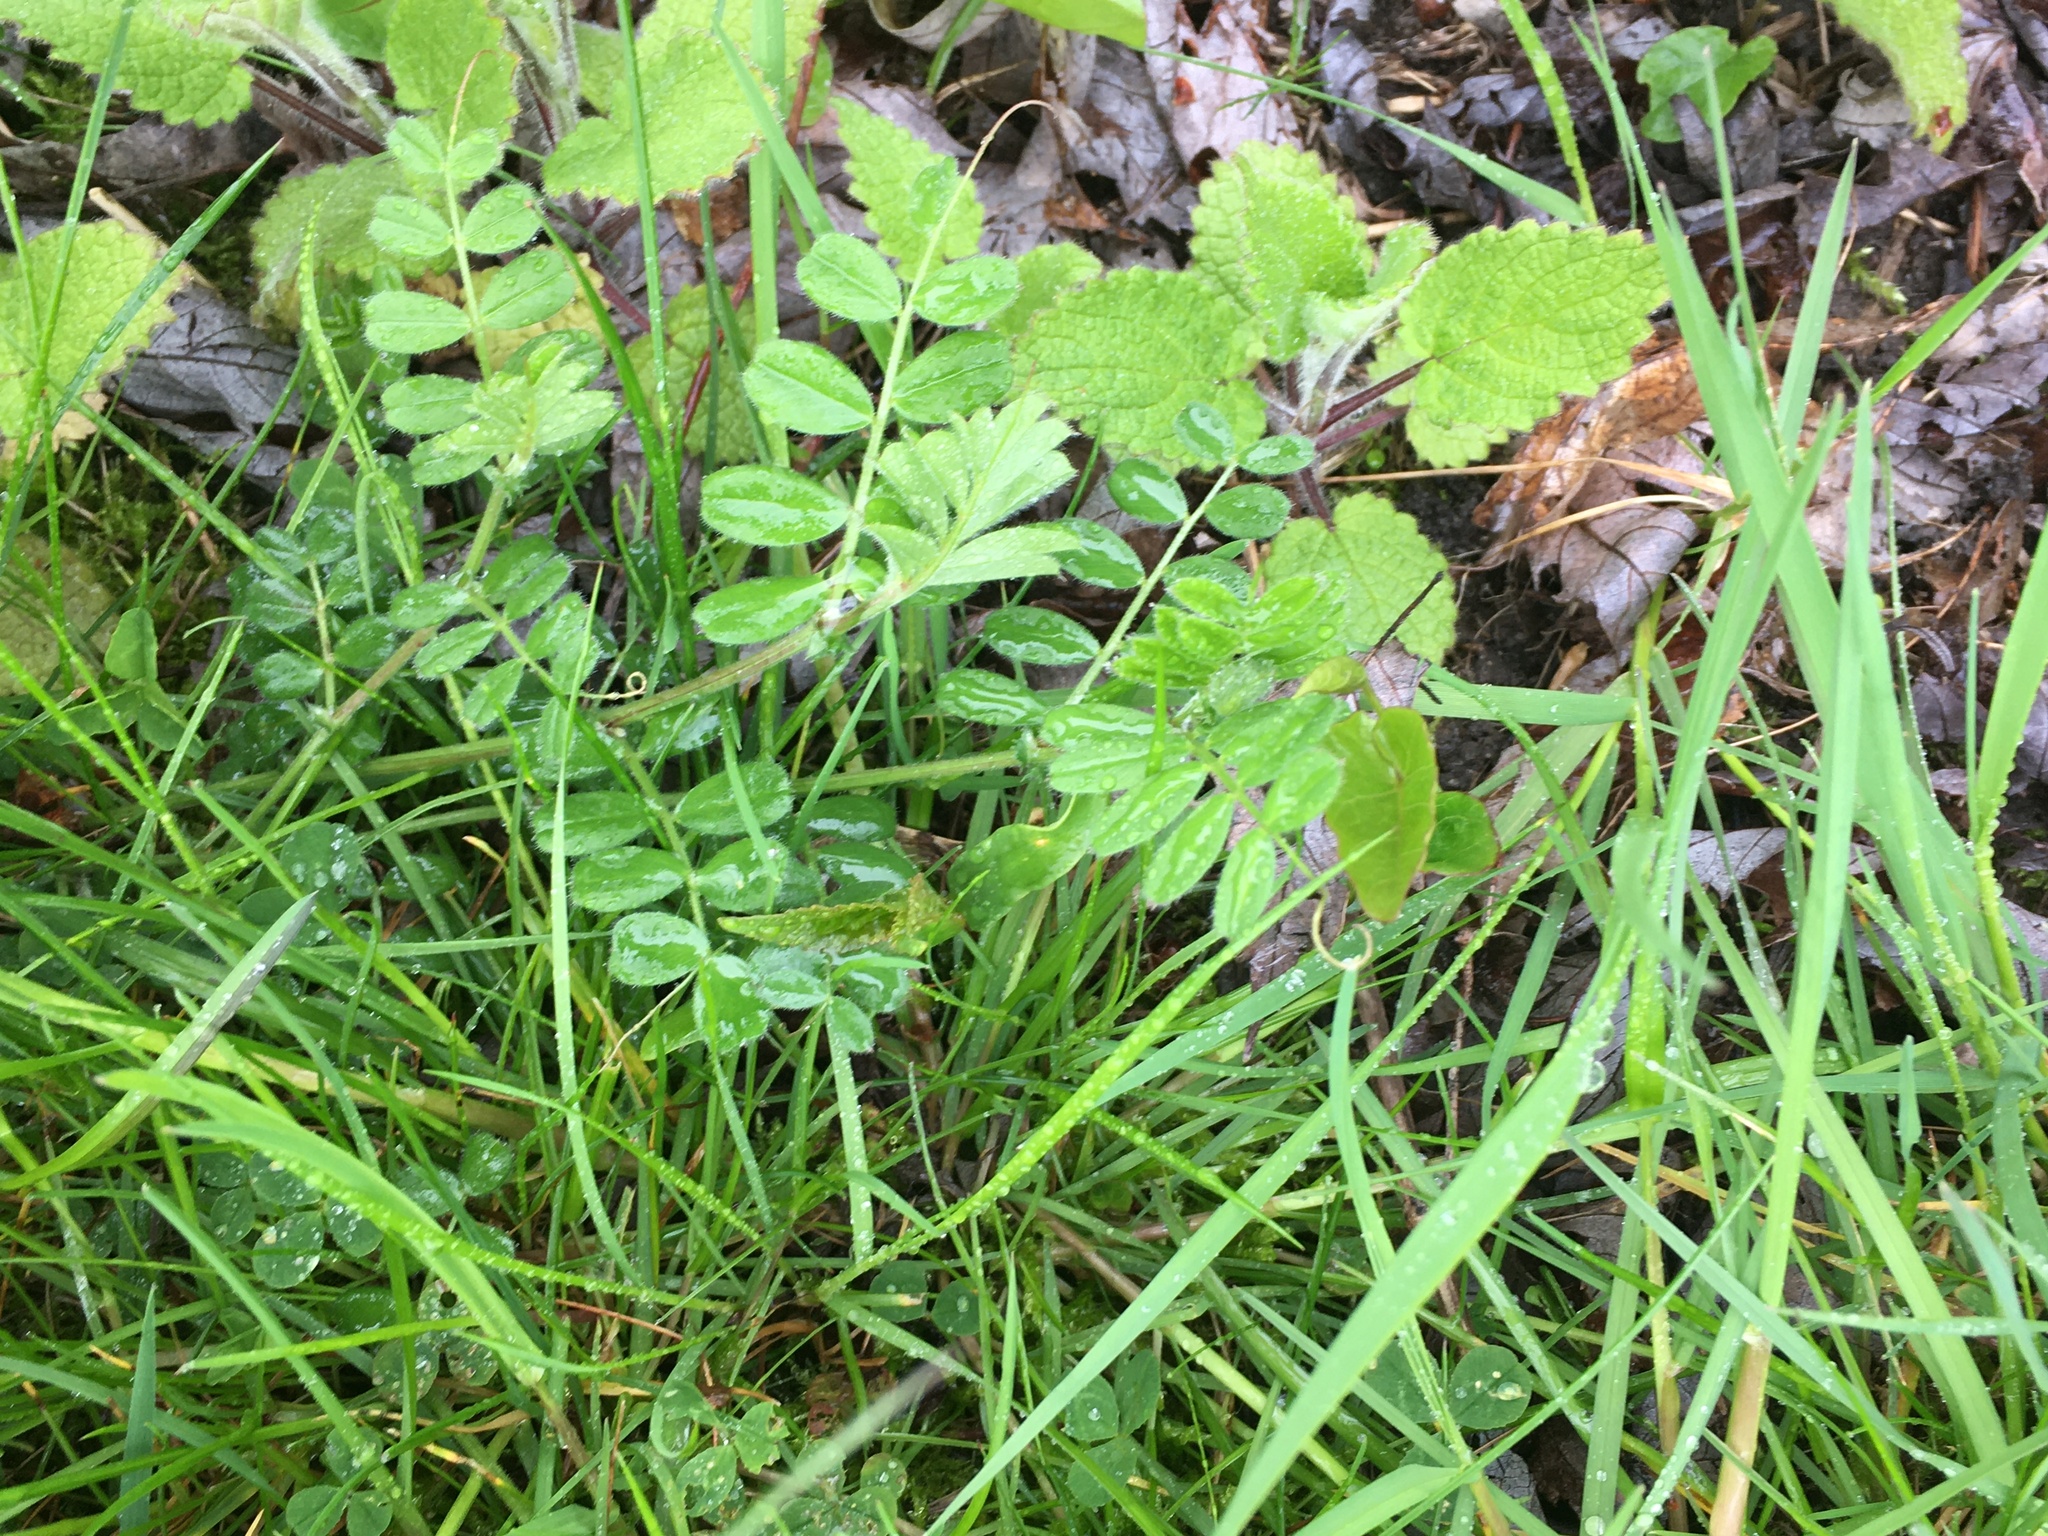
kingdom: Plantae
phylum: Tracheophyta
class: Magnoliopsida
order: Fabales
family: Fabaceae
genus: Vicia
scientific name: Vicia sativa
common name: Garden vetch
